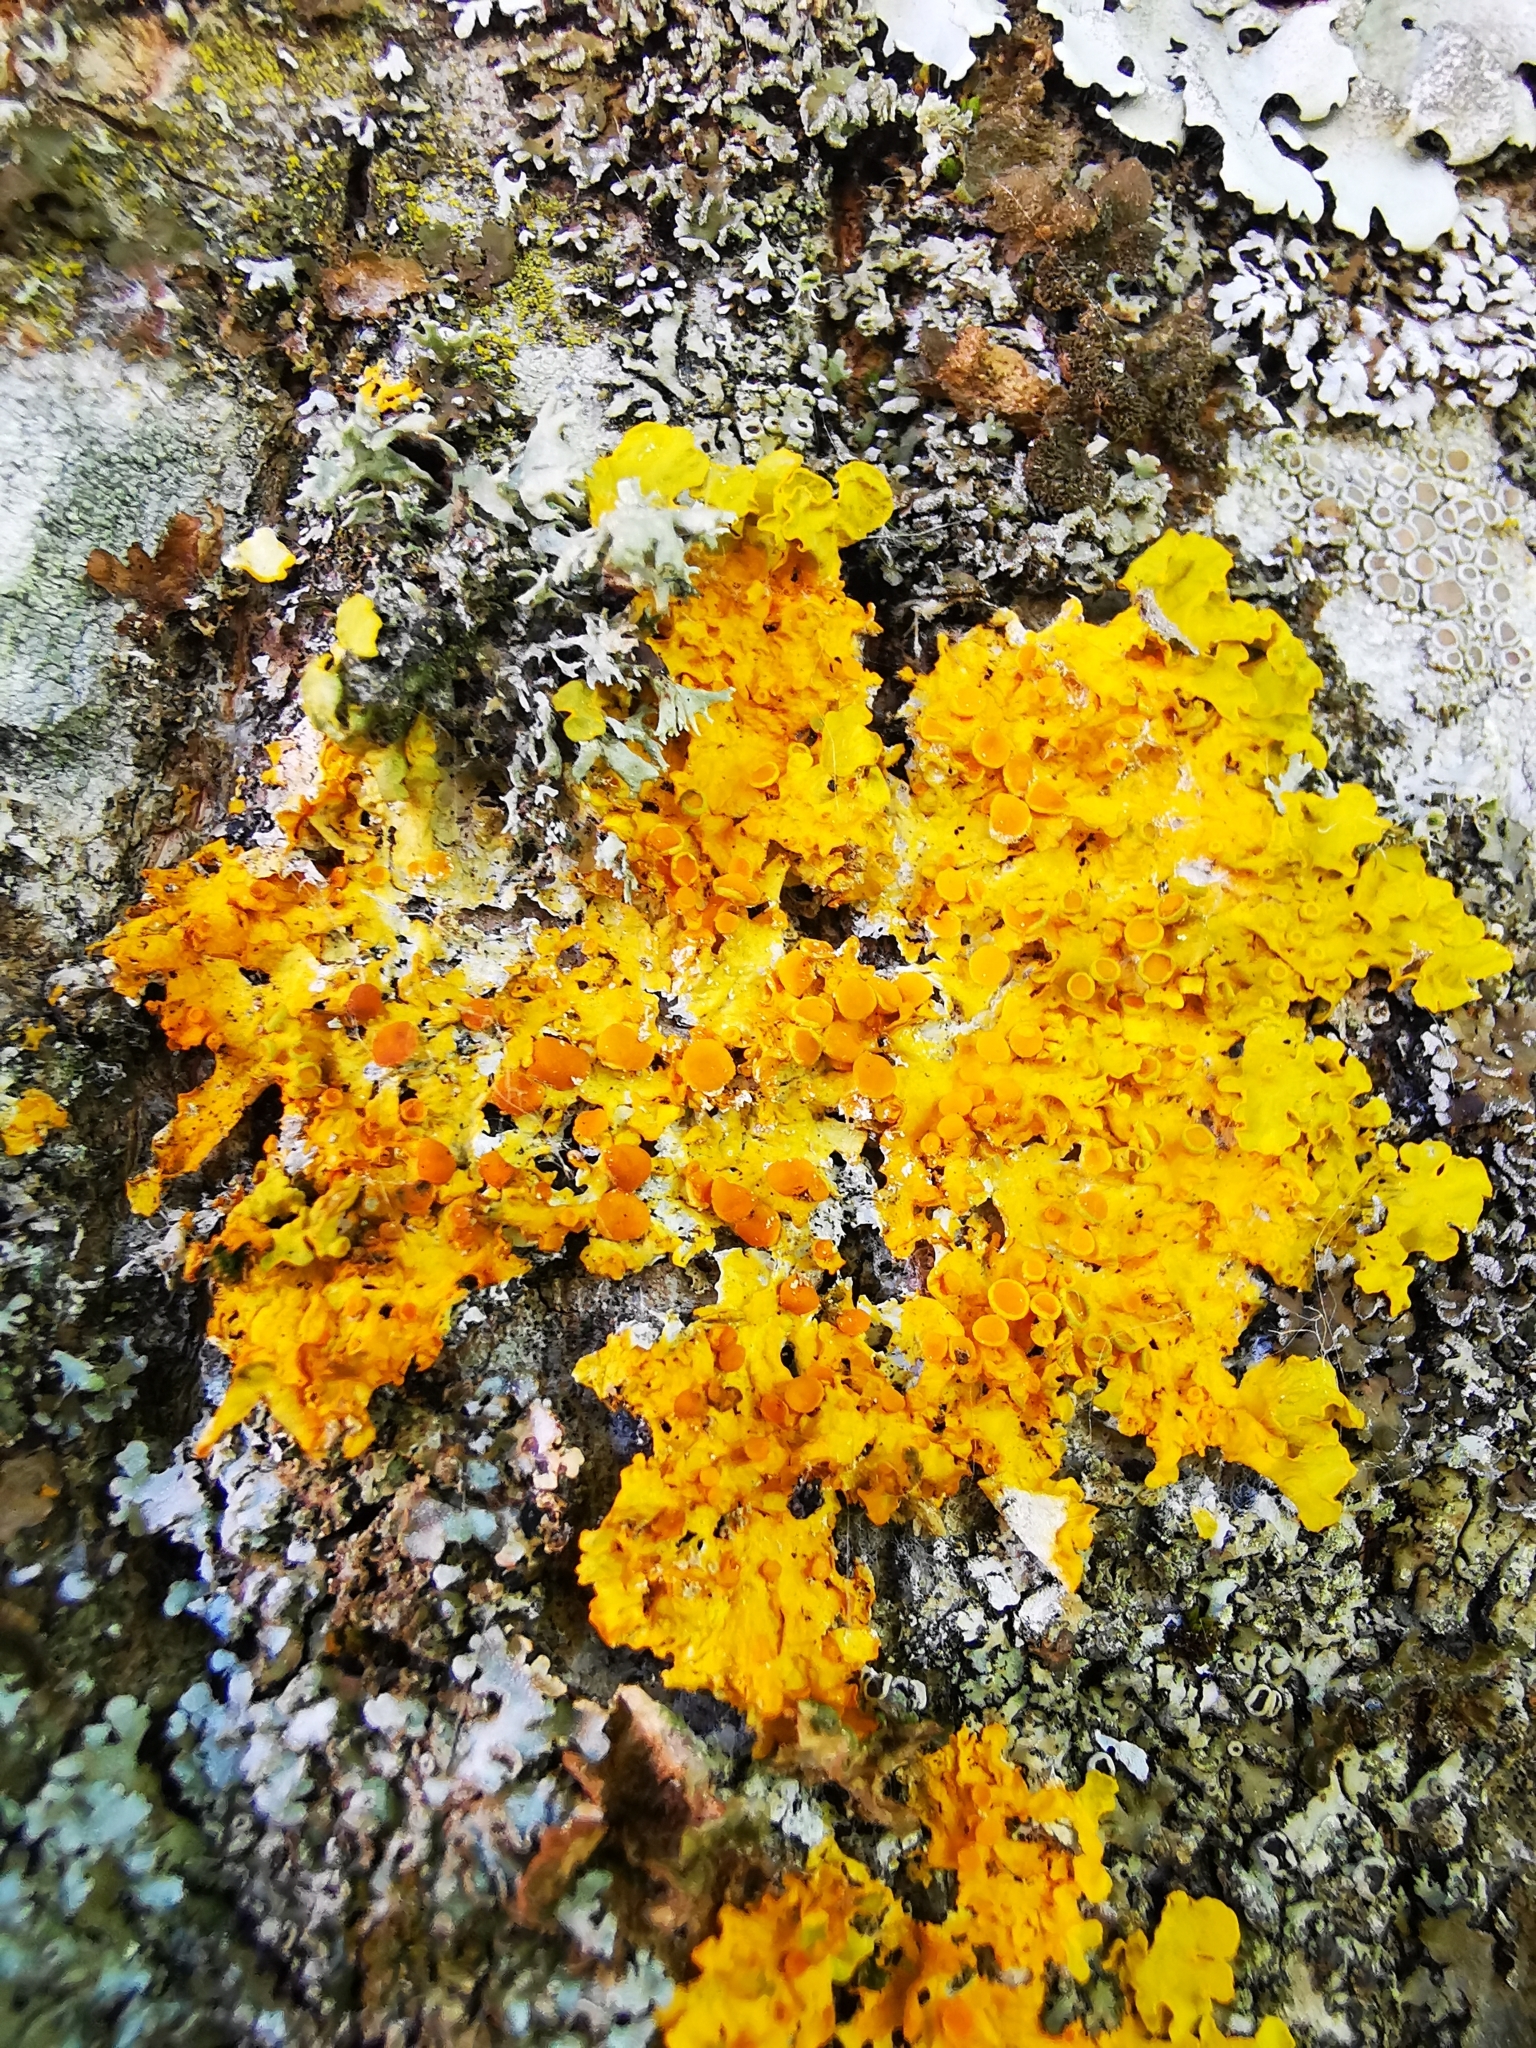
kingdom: Fungi
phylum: Ascomycota
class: Lecanoromycetes
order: Teloschistales
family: Teloschistaceae
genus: Xanthoria
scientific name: Xanthoria parietina
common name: Common orange lichen
